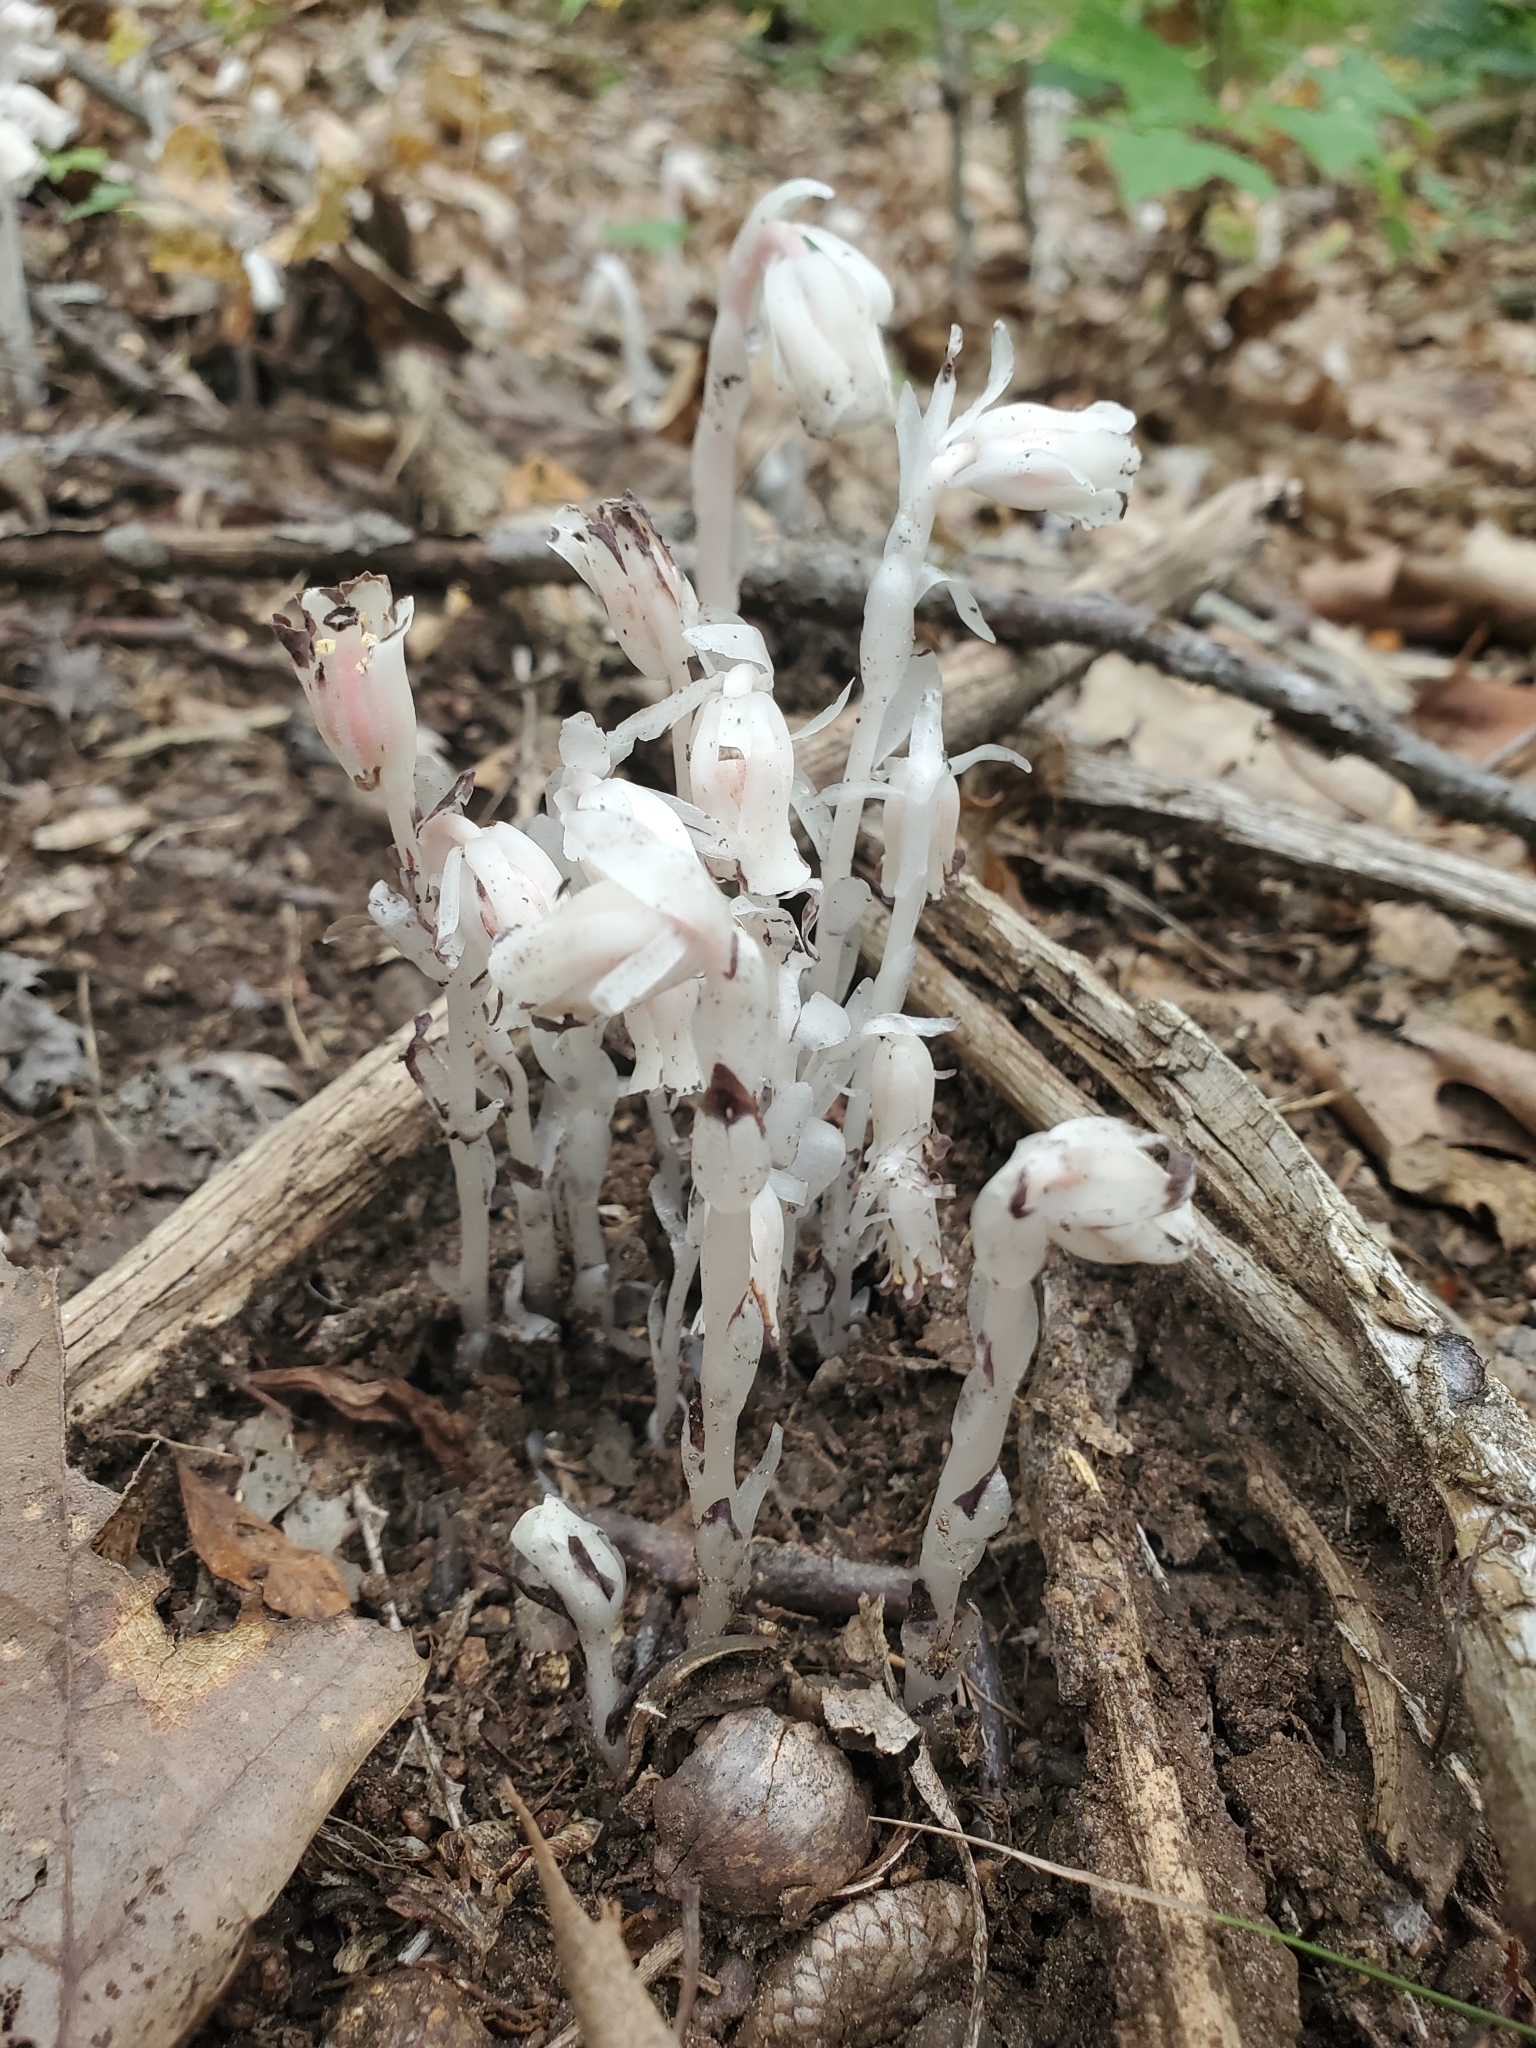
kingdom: Plantae
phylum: Tracheophyta
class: Magnoliopsida
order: Ericales
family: Ericaceae
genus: Monotropa
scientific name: Monotropa uniflora
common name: Convulsion root
